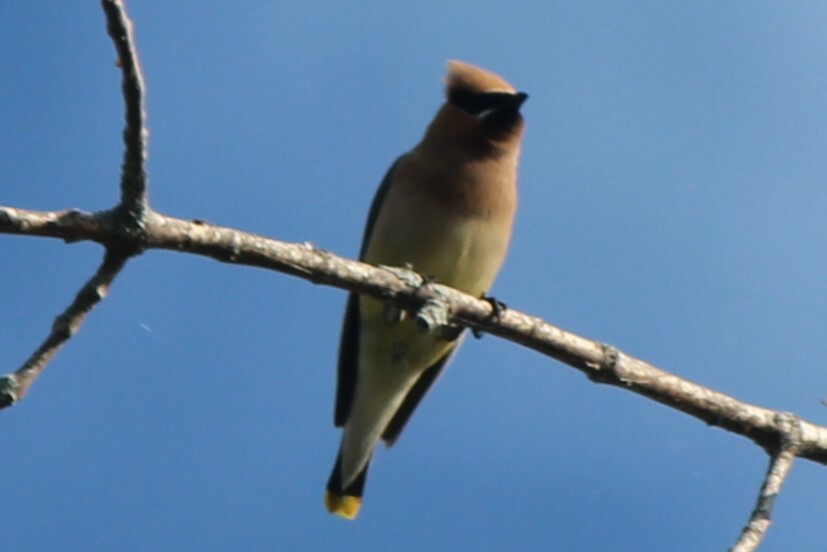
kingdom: Animalia
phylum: Chordata
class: Aves
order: Passeriformes
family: Bombycillidae
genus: Bombycilla
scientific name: Bombycilla cedrorum
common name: Cedar waxwing
